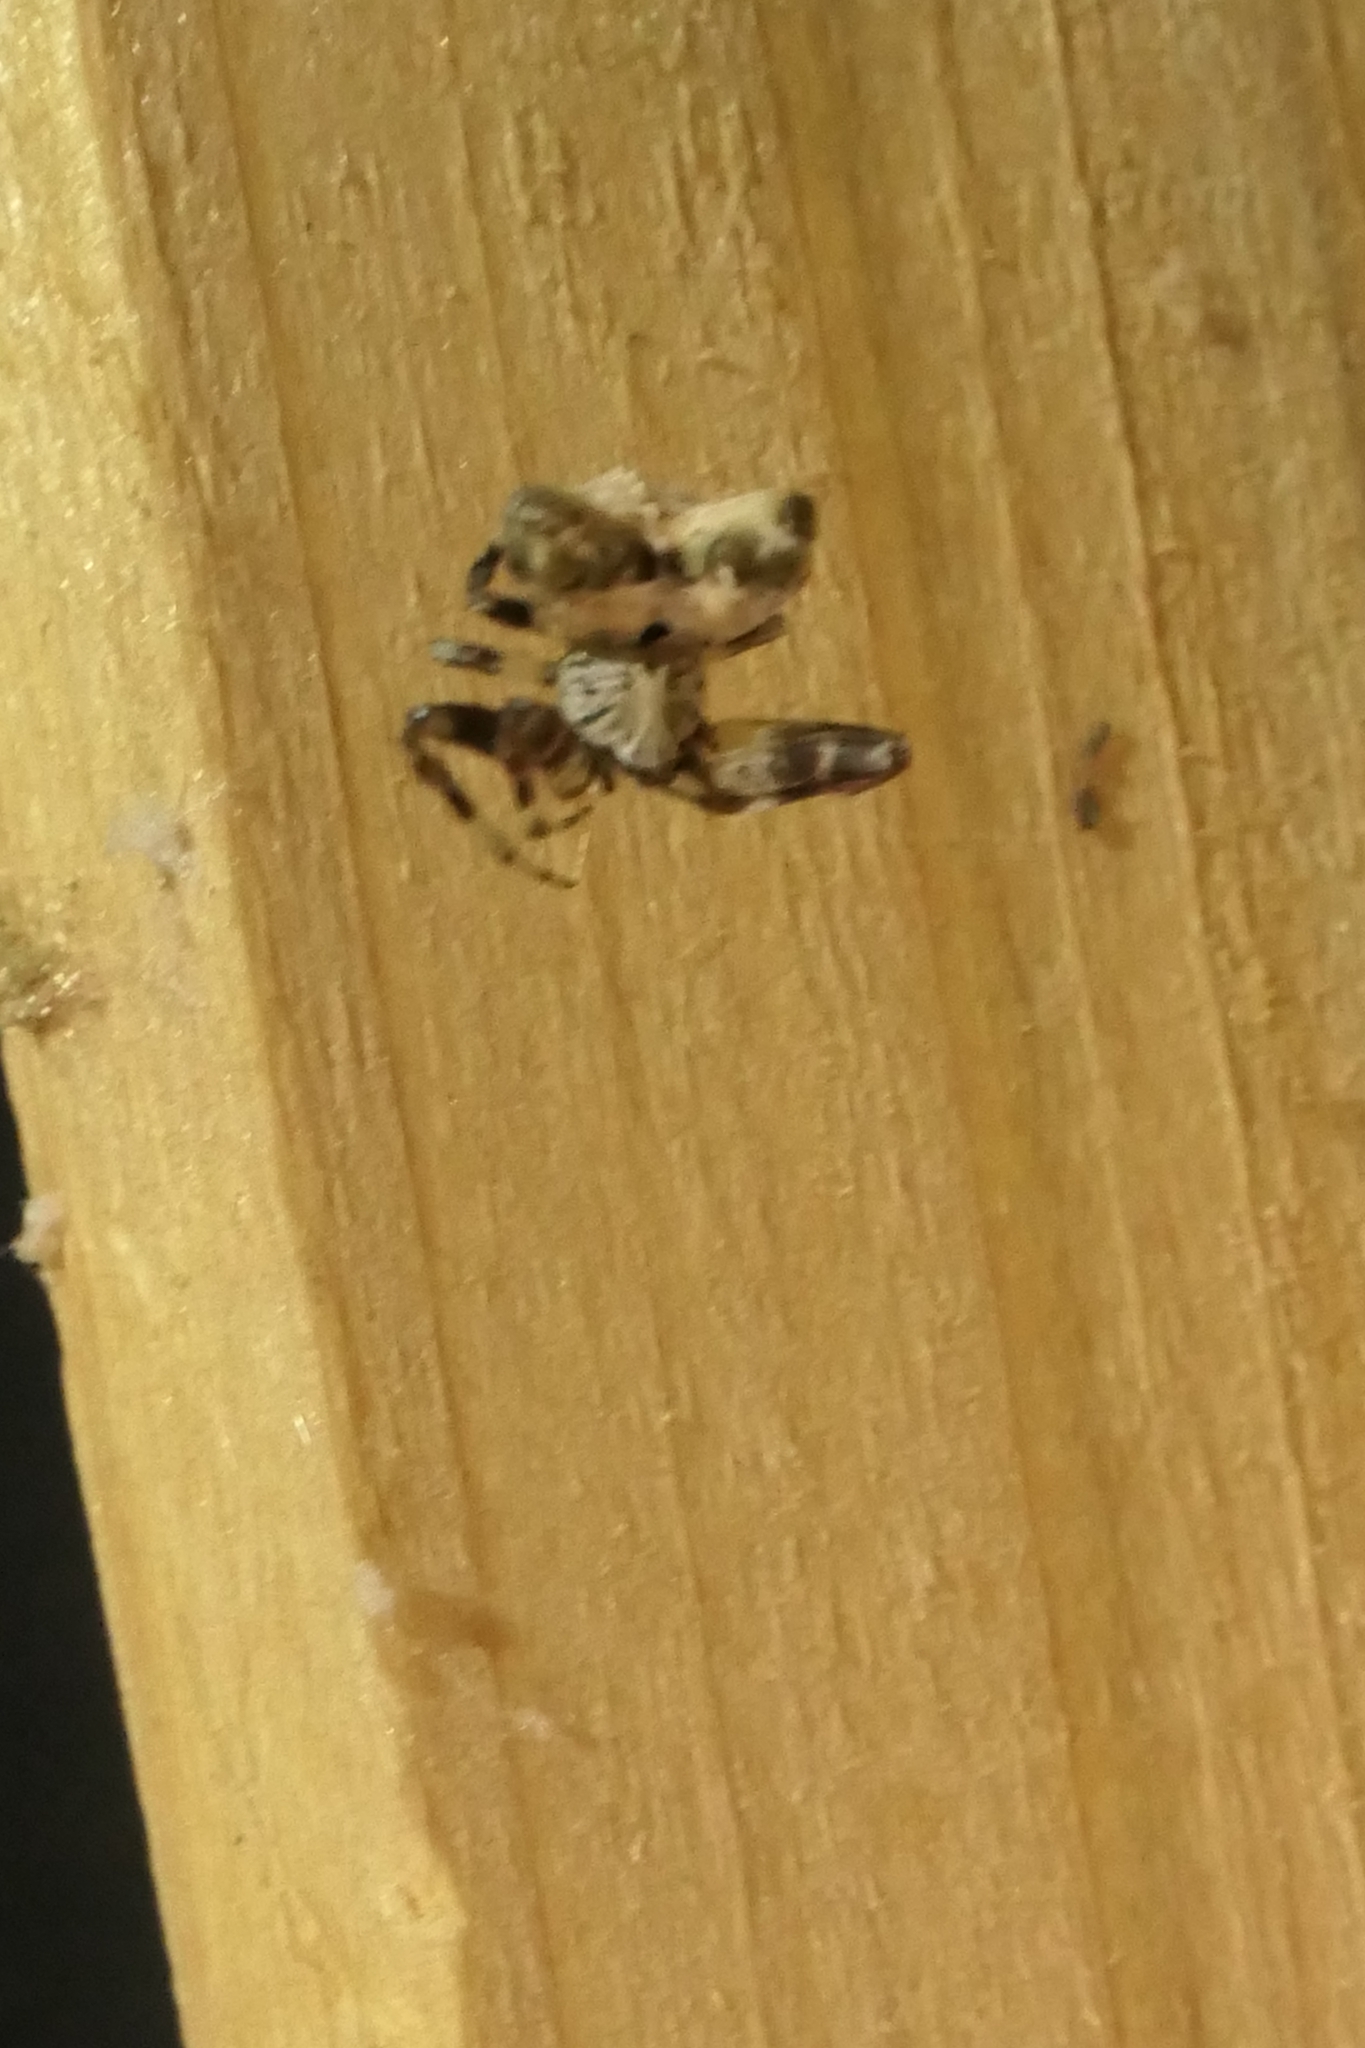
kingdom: Animalia
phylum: Arthropoda
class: Arachnida
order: Araneae
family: Araneidae
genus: Celaenia
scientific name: Celaenia olivacea
